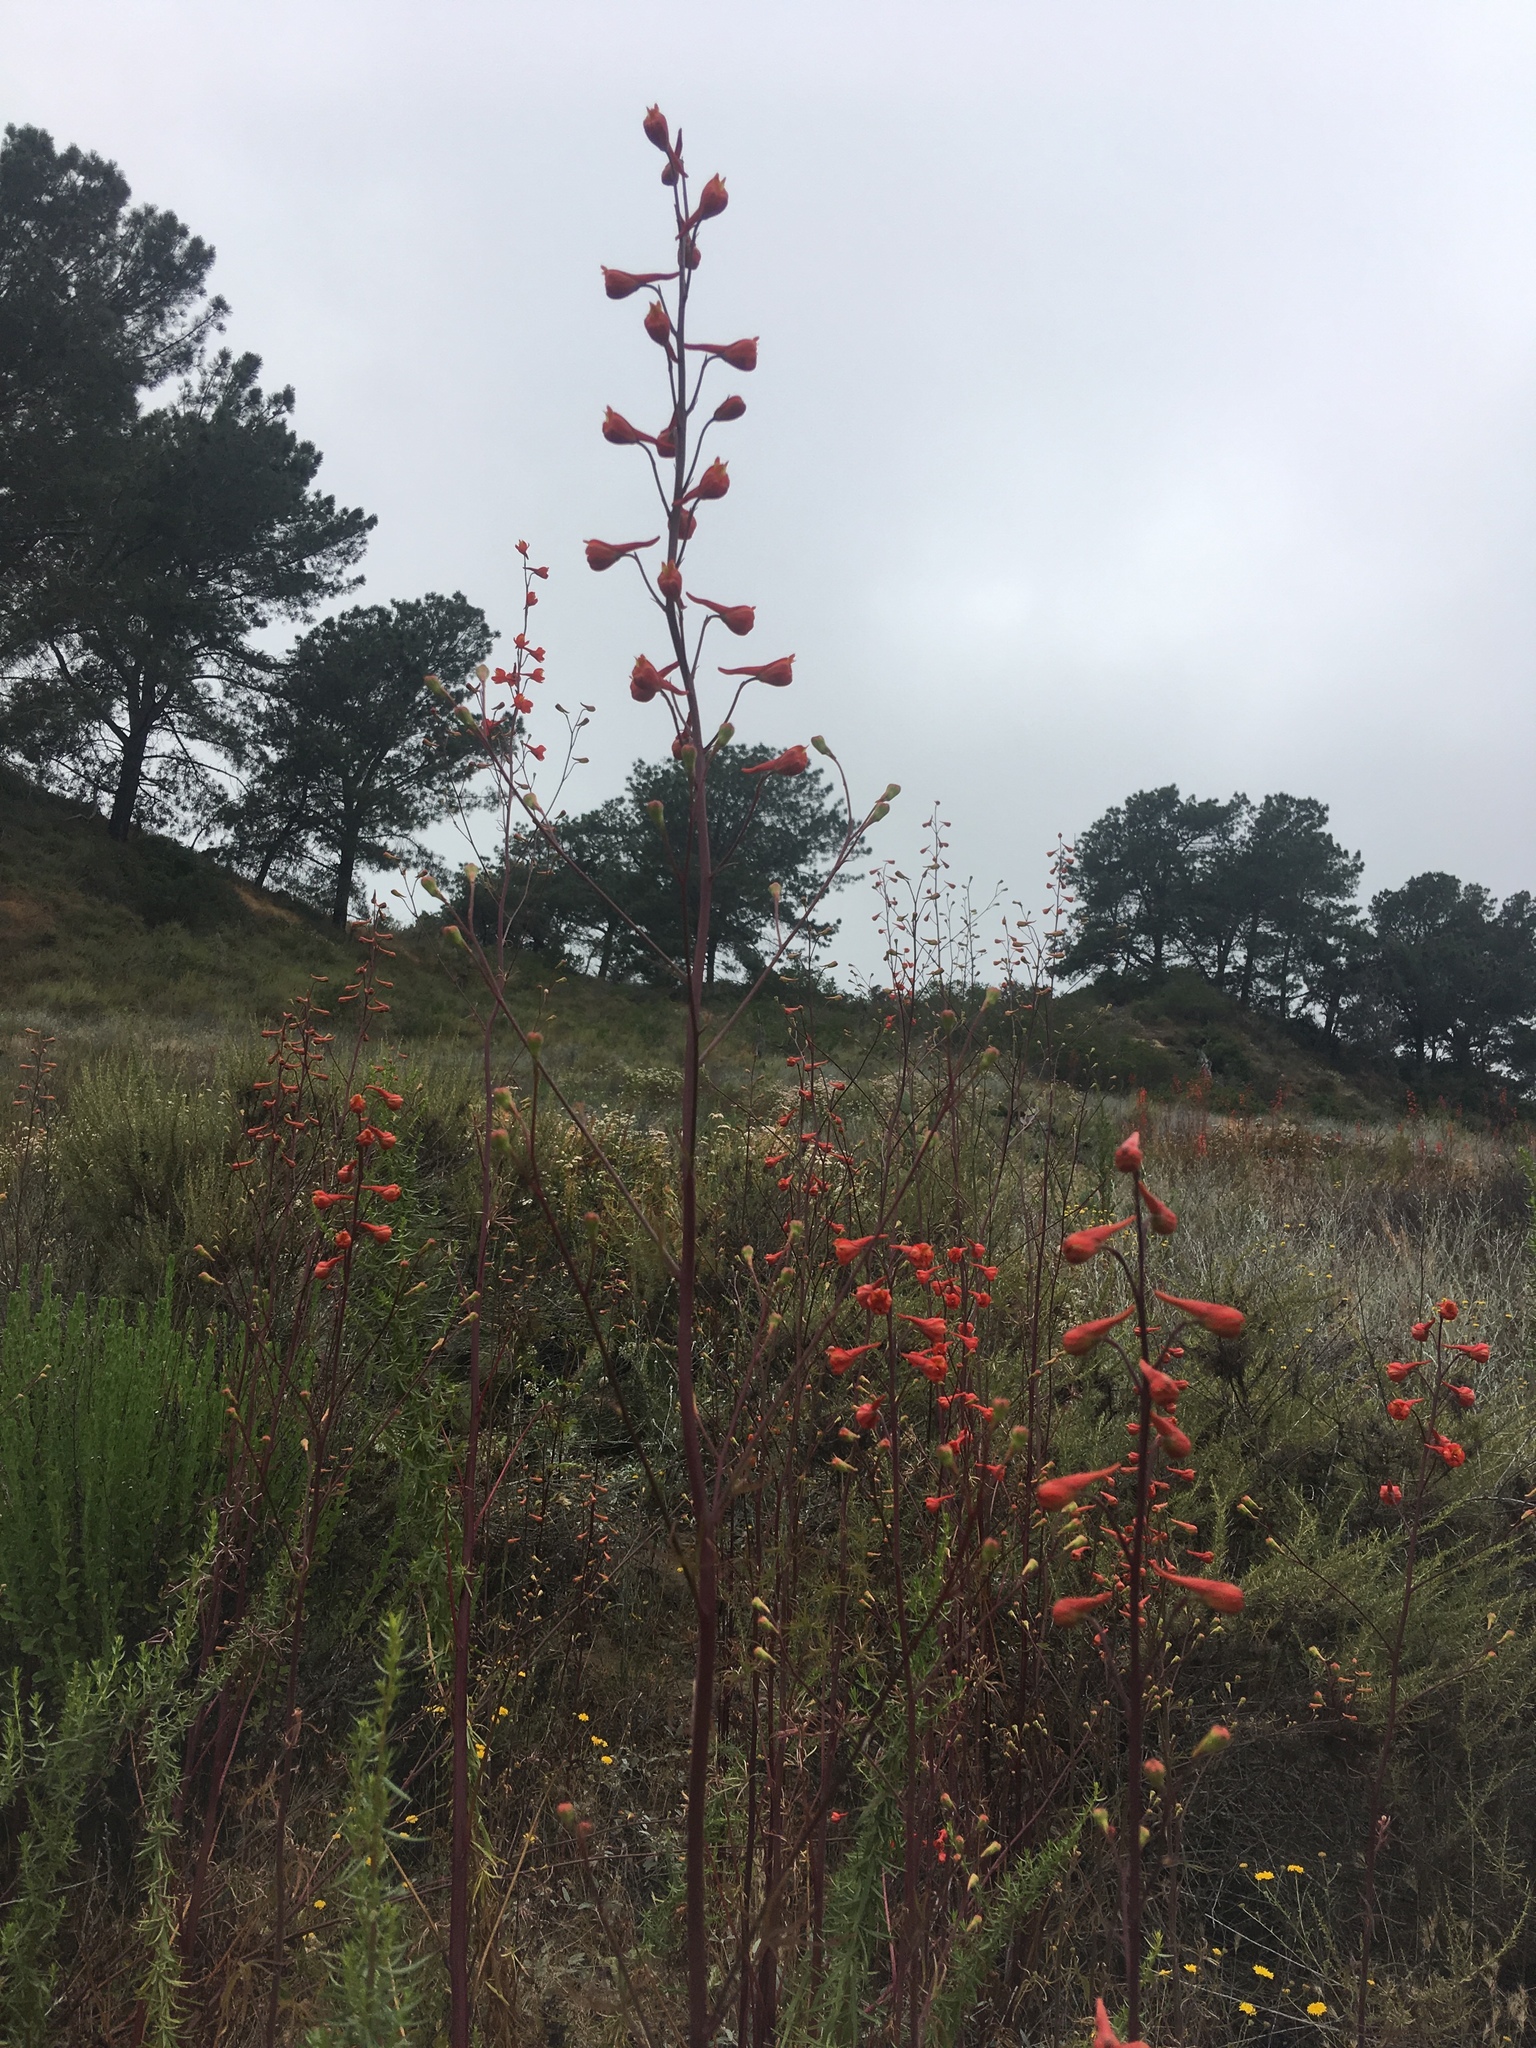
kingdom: Plantae
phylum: Tracheophyta
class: Magnoliopsida
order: Ranunculales
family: Ranunculaceae
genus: Delphinium
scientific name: Delphinium cardinale
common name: Scarlet larkspur
